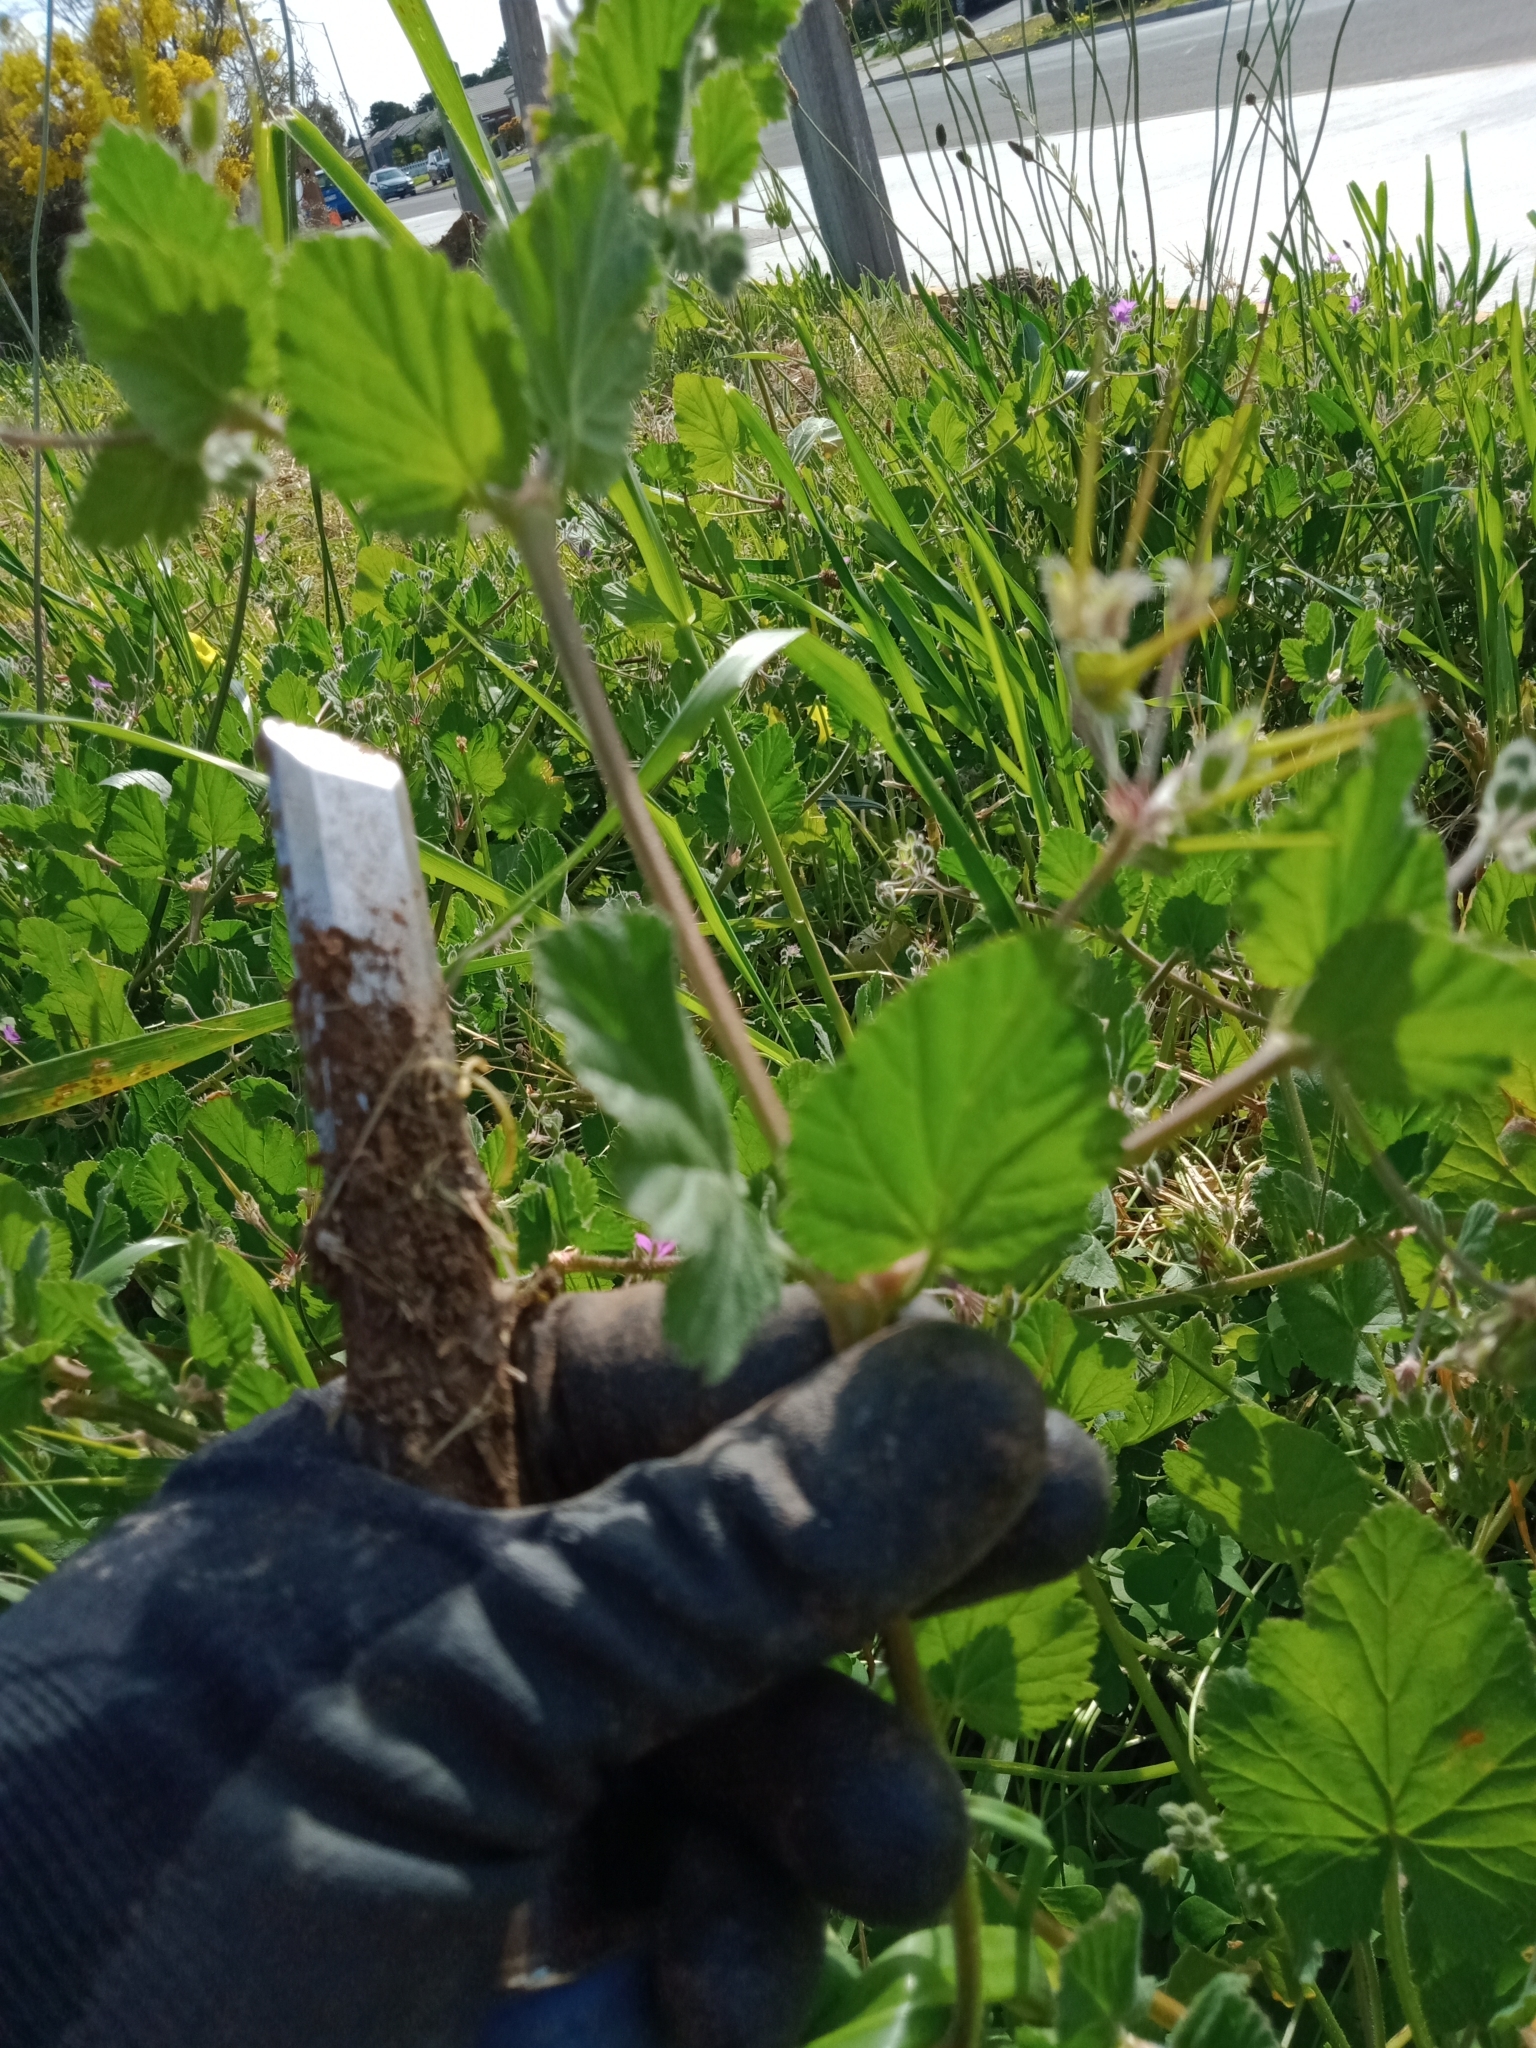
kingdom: Plantae
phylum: Tracheophyta
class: Magnoliopsida
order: Geraniales
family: Geraniaceae
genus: Erodium
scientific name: Erodium malacoides
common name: Soft stork's-bill
